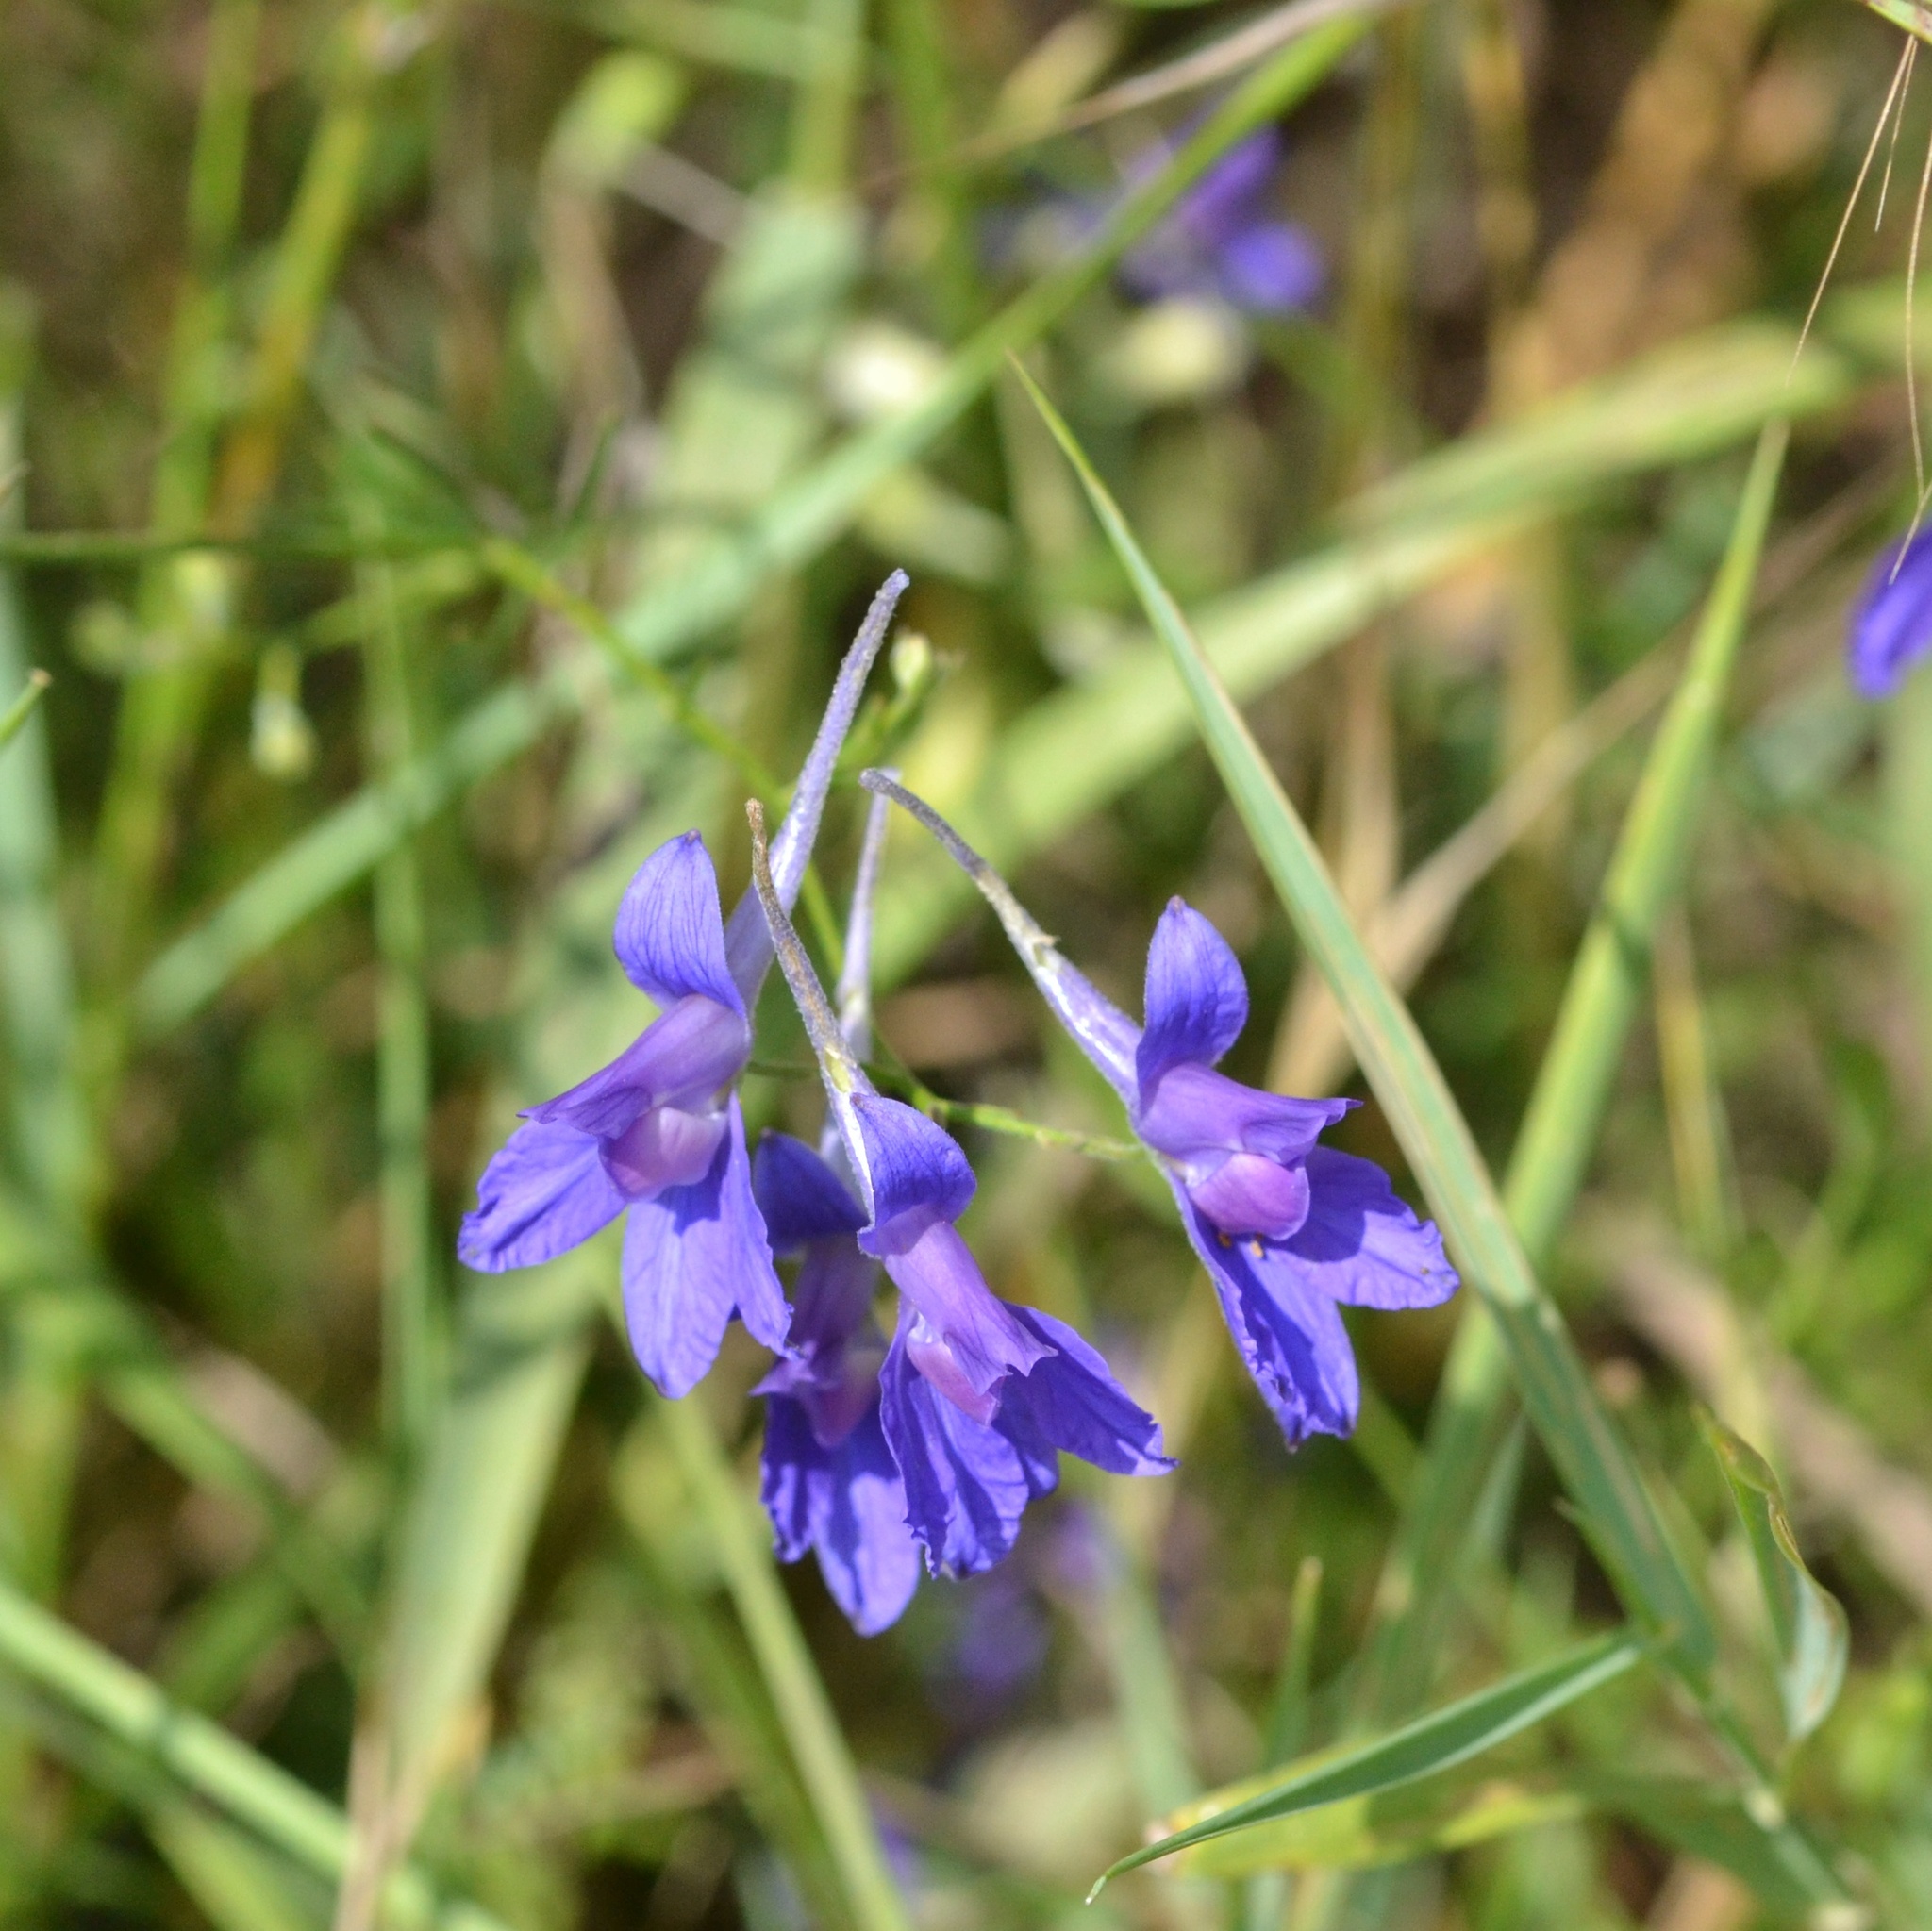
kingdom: Plantae
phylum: Tracheophyta
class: Magnoliopsida
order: Ranunculales
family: Ranunculaceae
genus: Delphinium
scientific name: Delphinium consolida
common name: Branching larkspur
